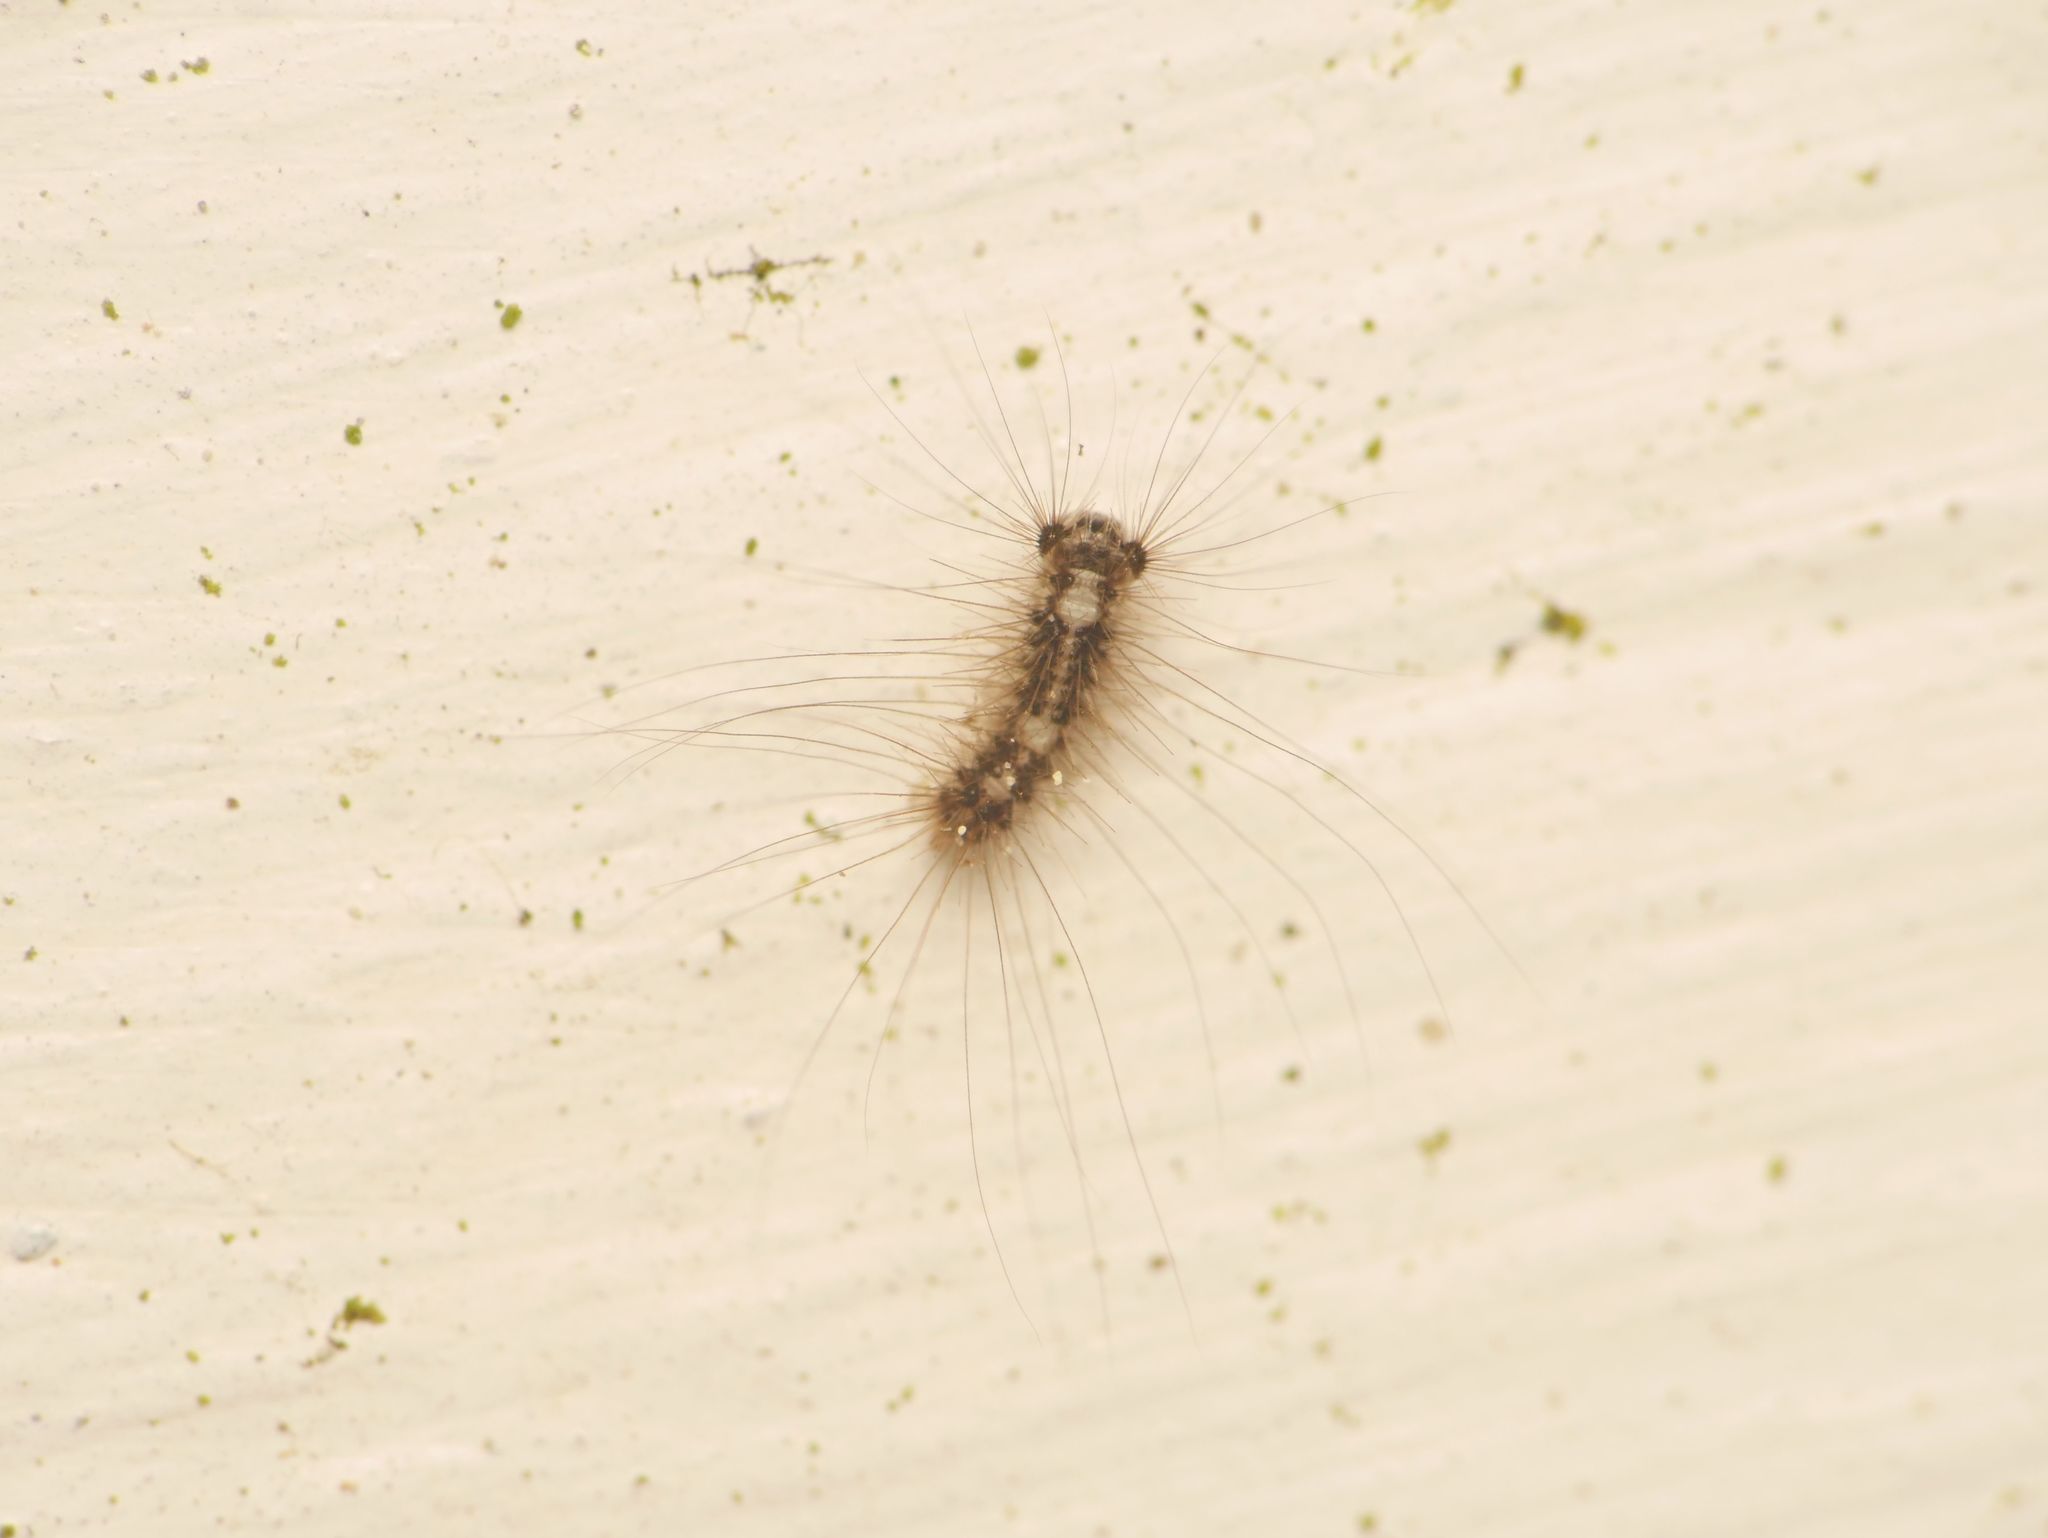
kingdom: Animalia
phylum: Arthropoda
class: Insecta
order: Lepidoptera
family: Erebidae
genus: Lymantria
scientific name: Lymantria dispar
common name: Gypsy moth
